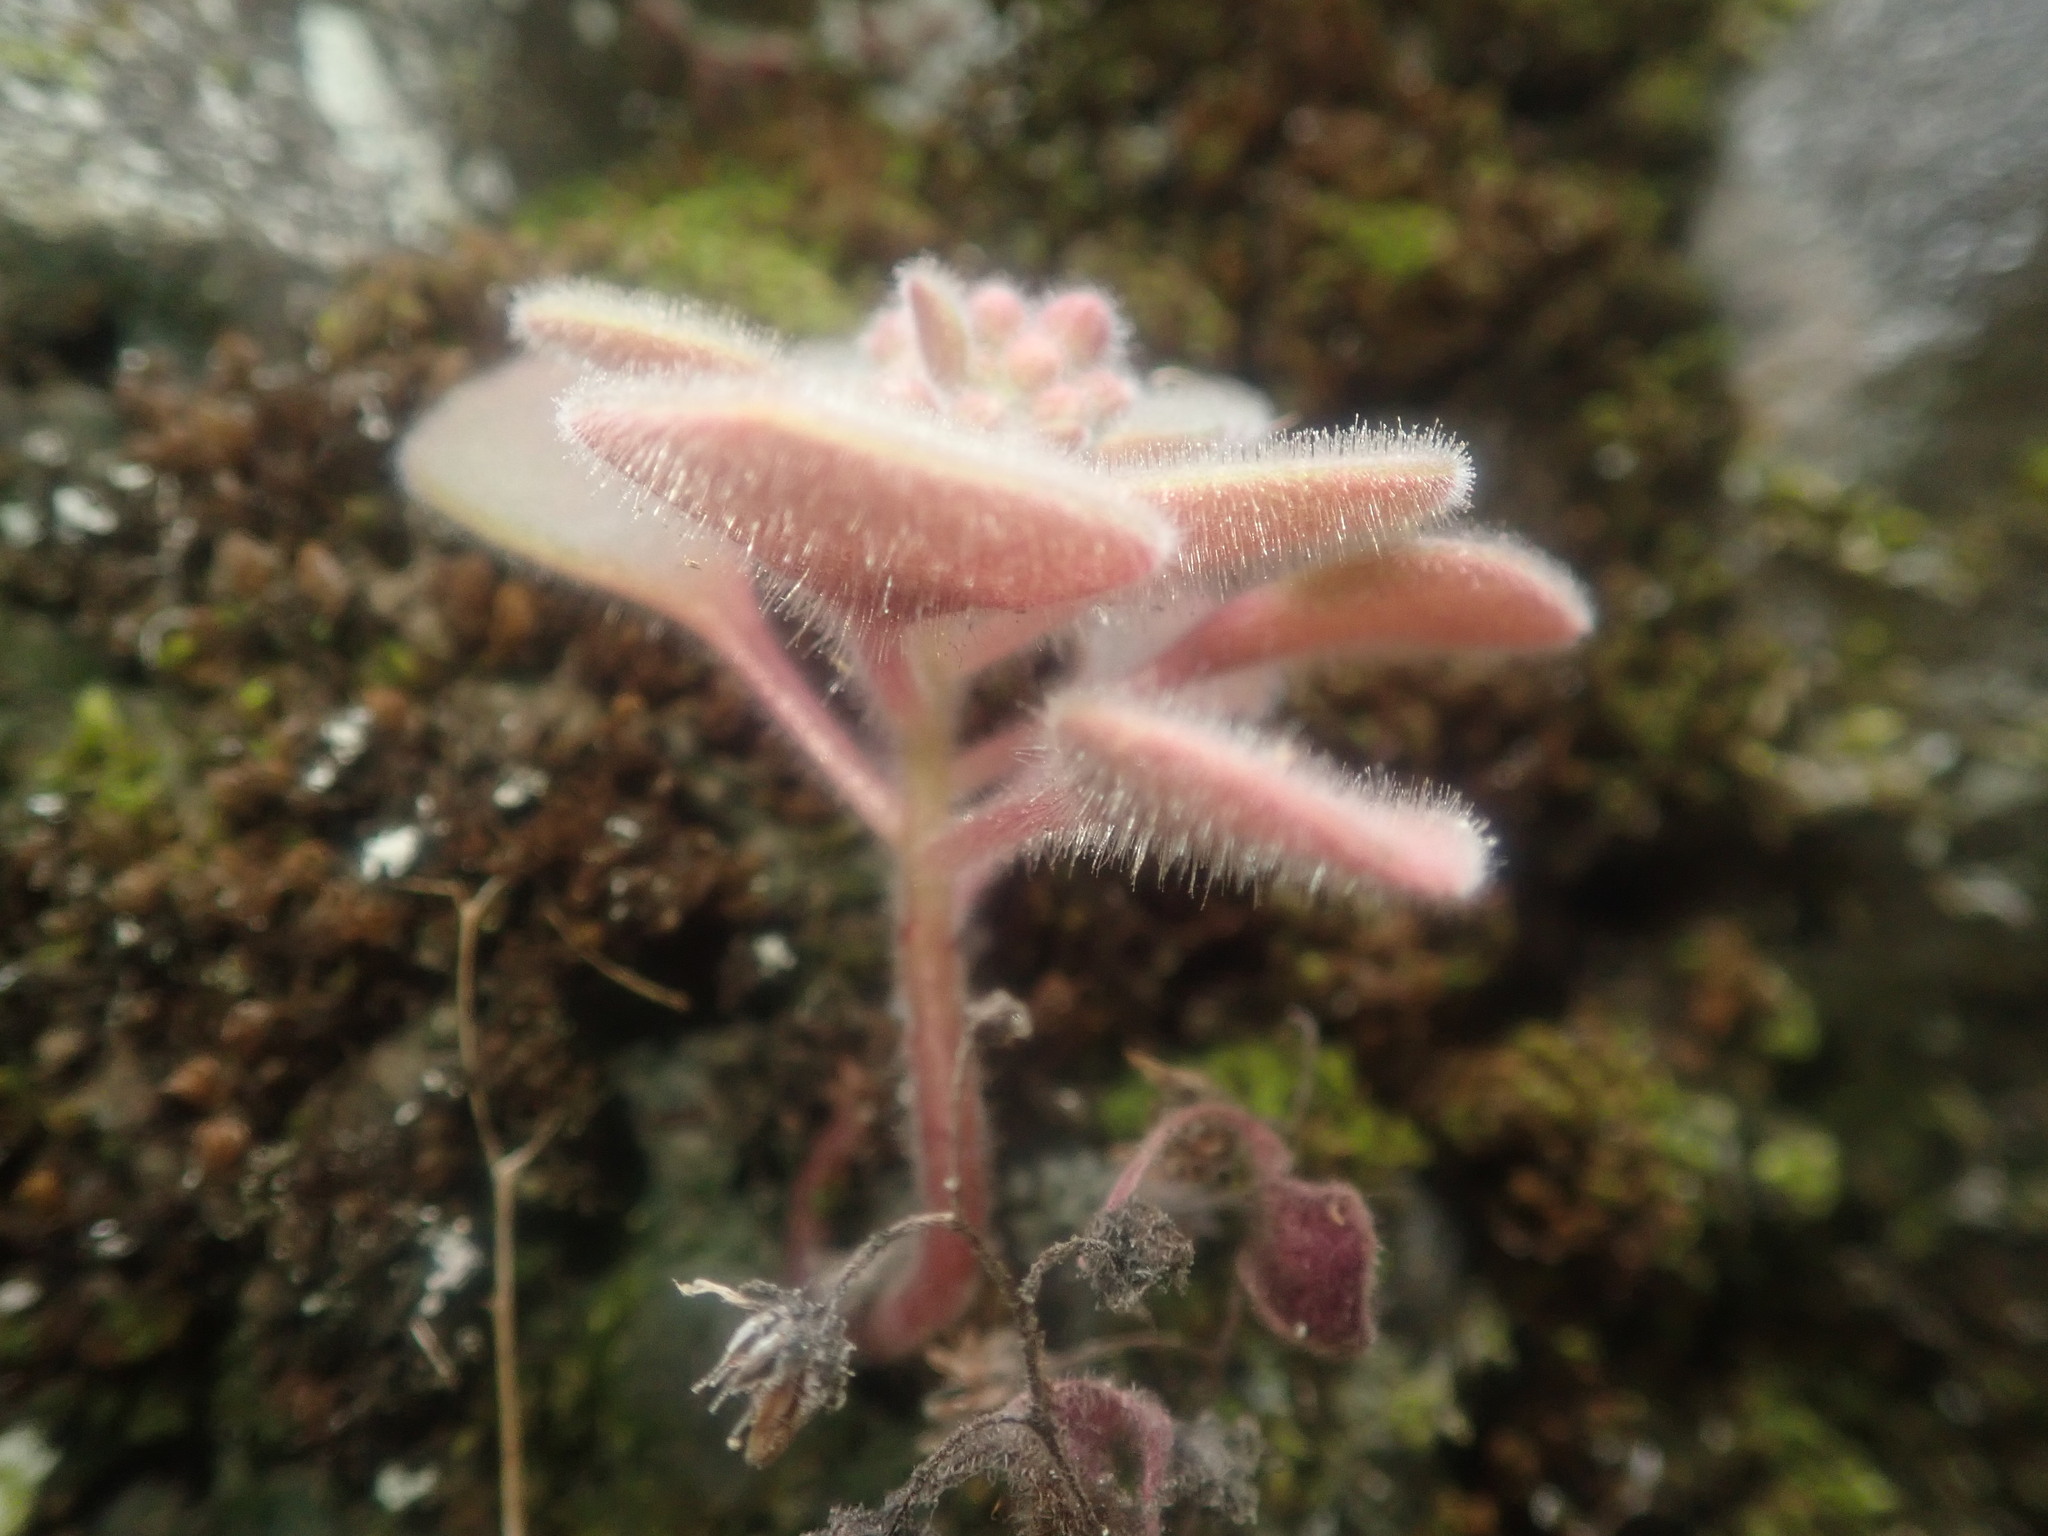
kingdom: Plantae
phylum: Tracheophyta
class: Magnoliopsida
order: Saxifragales
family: Crassulaceae
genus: Aichryson
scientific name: Aichryson villosum
